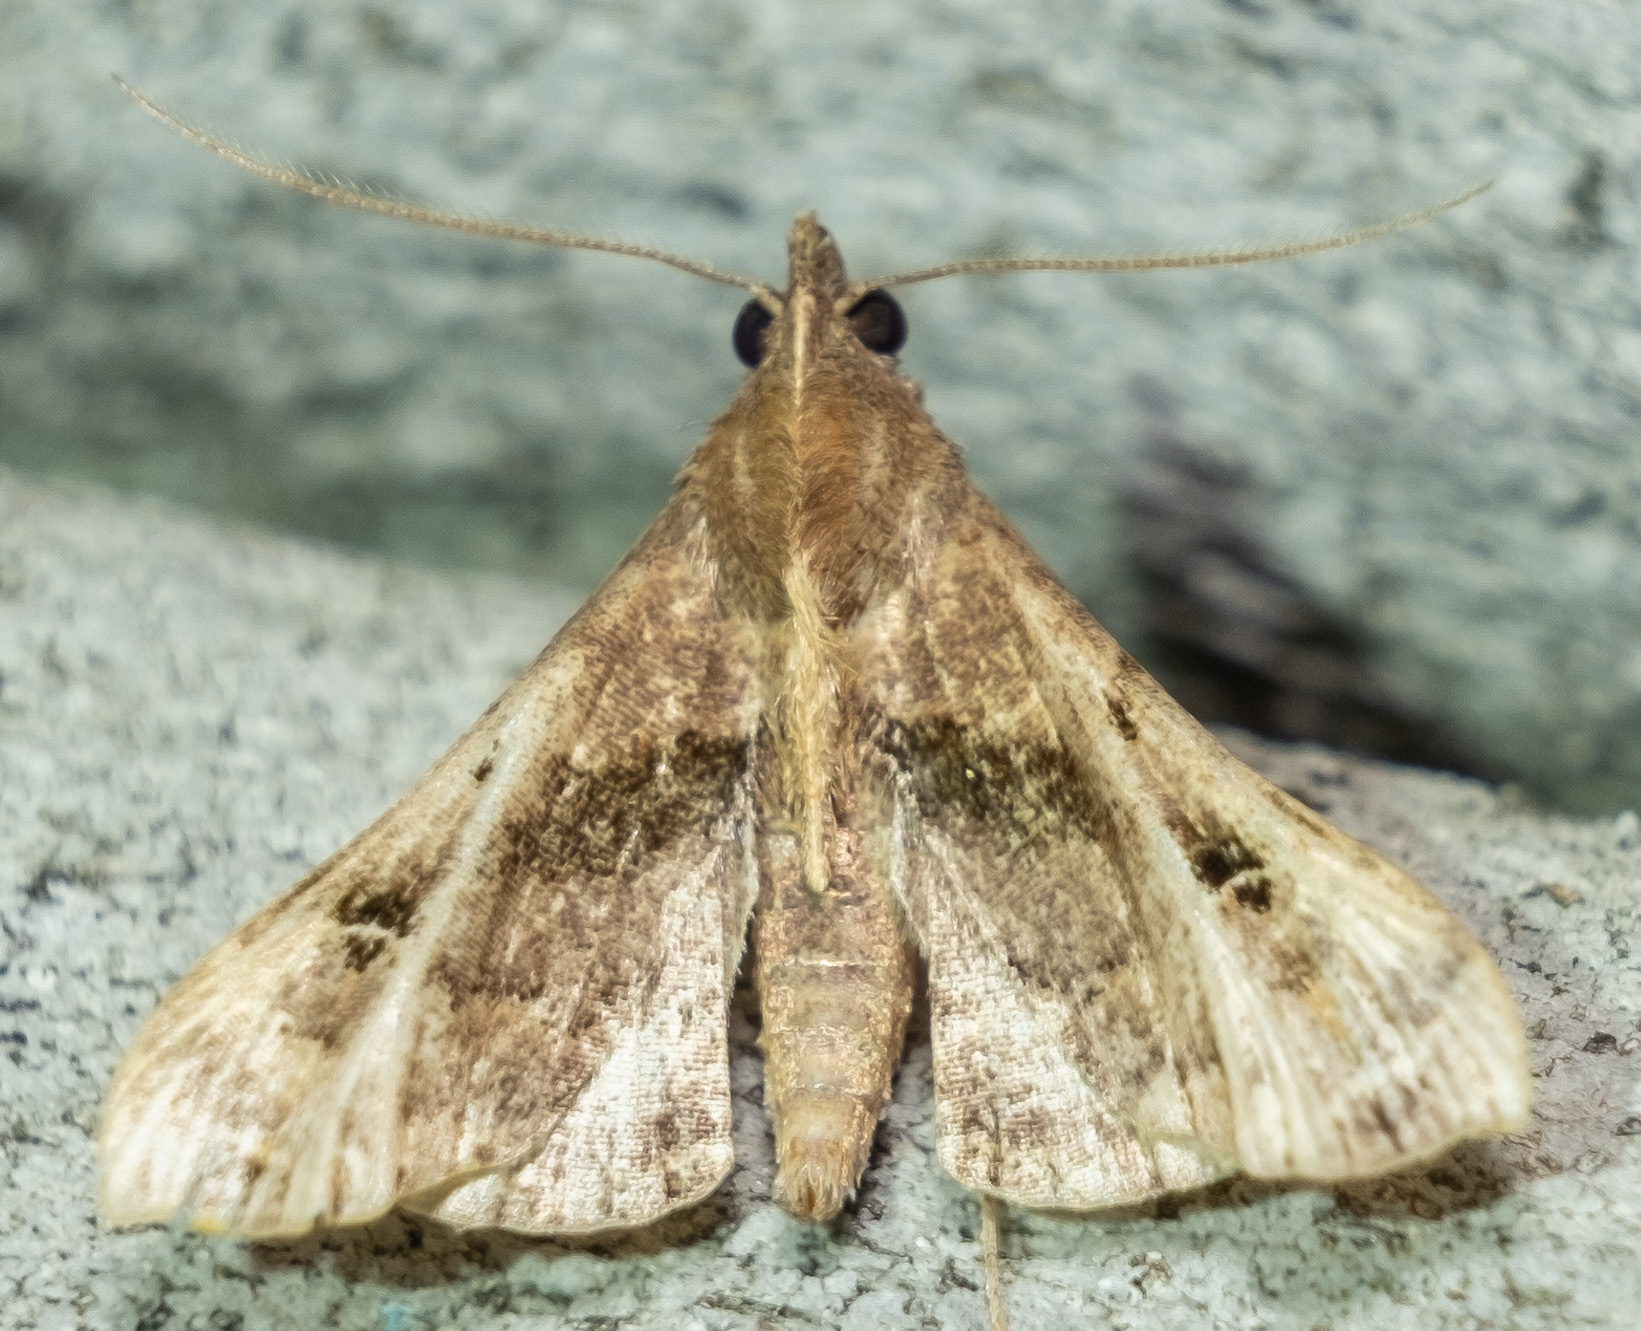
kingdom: Animalia
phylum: Arthropoda
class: Insecta
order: Lepidoptera
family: Erebidae
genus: Palthis
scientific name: Palthis asopialis
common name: Faint-spotted palthis moth
